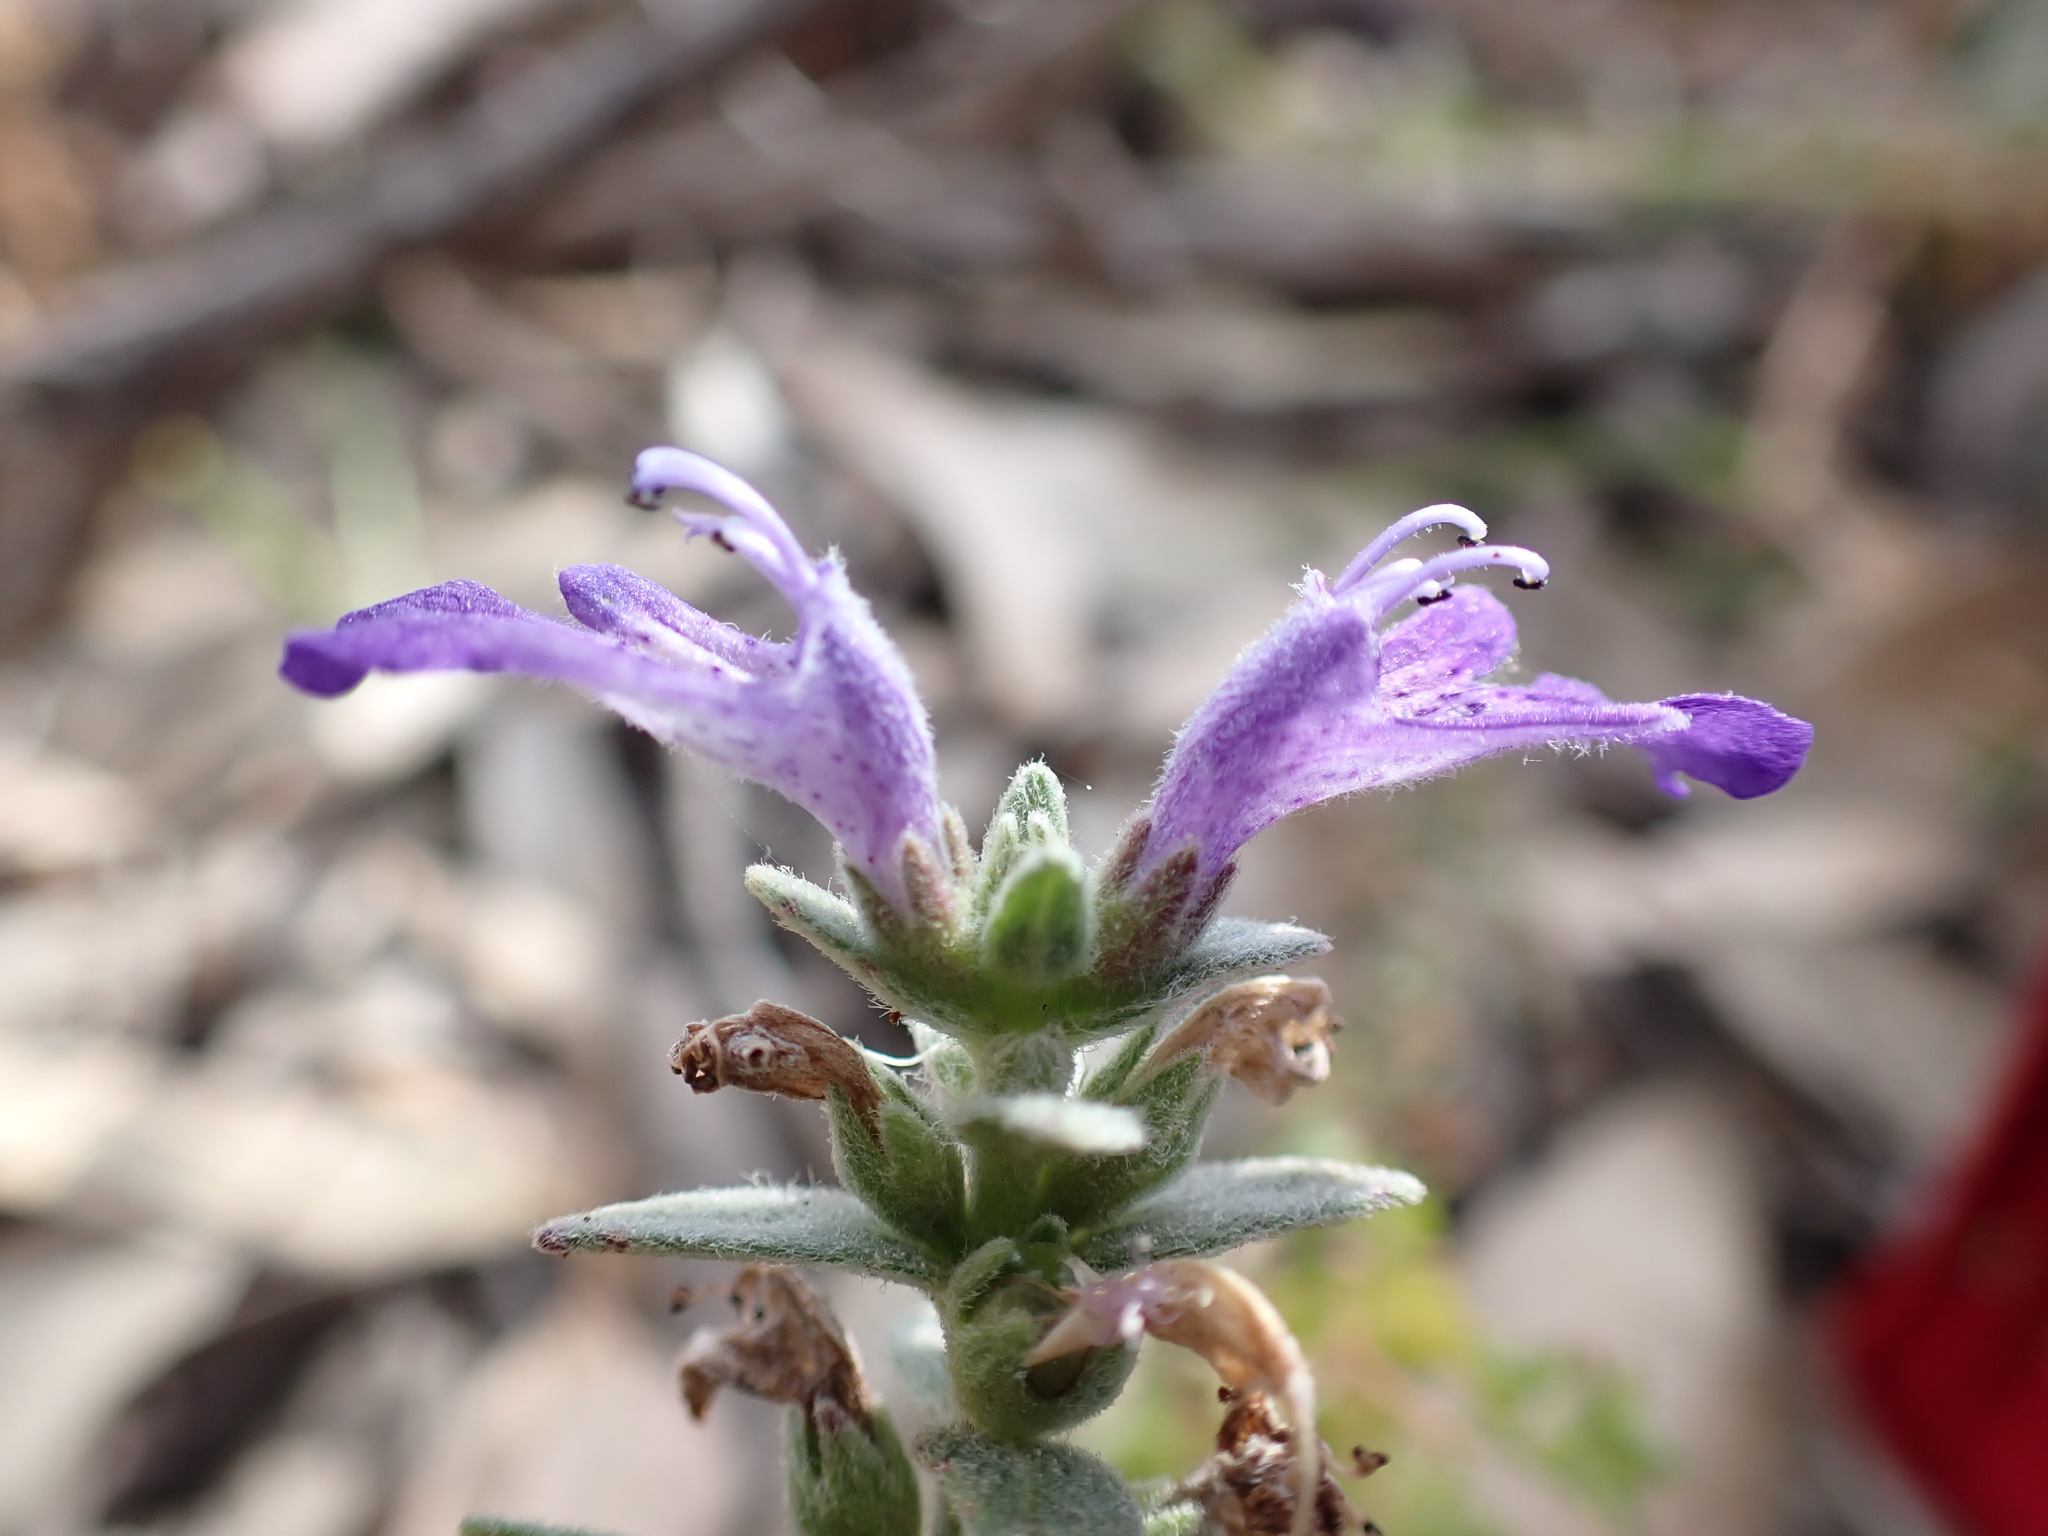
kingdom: Plantae
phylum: Tracheophyta
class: Magnoliopsida
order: Lamiales
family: Lamiaceae
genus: Ajuga
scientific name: Ajuga australis
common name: Australian bugle
